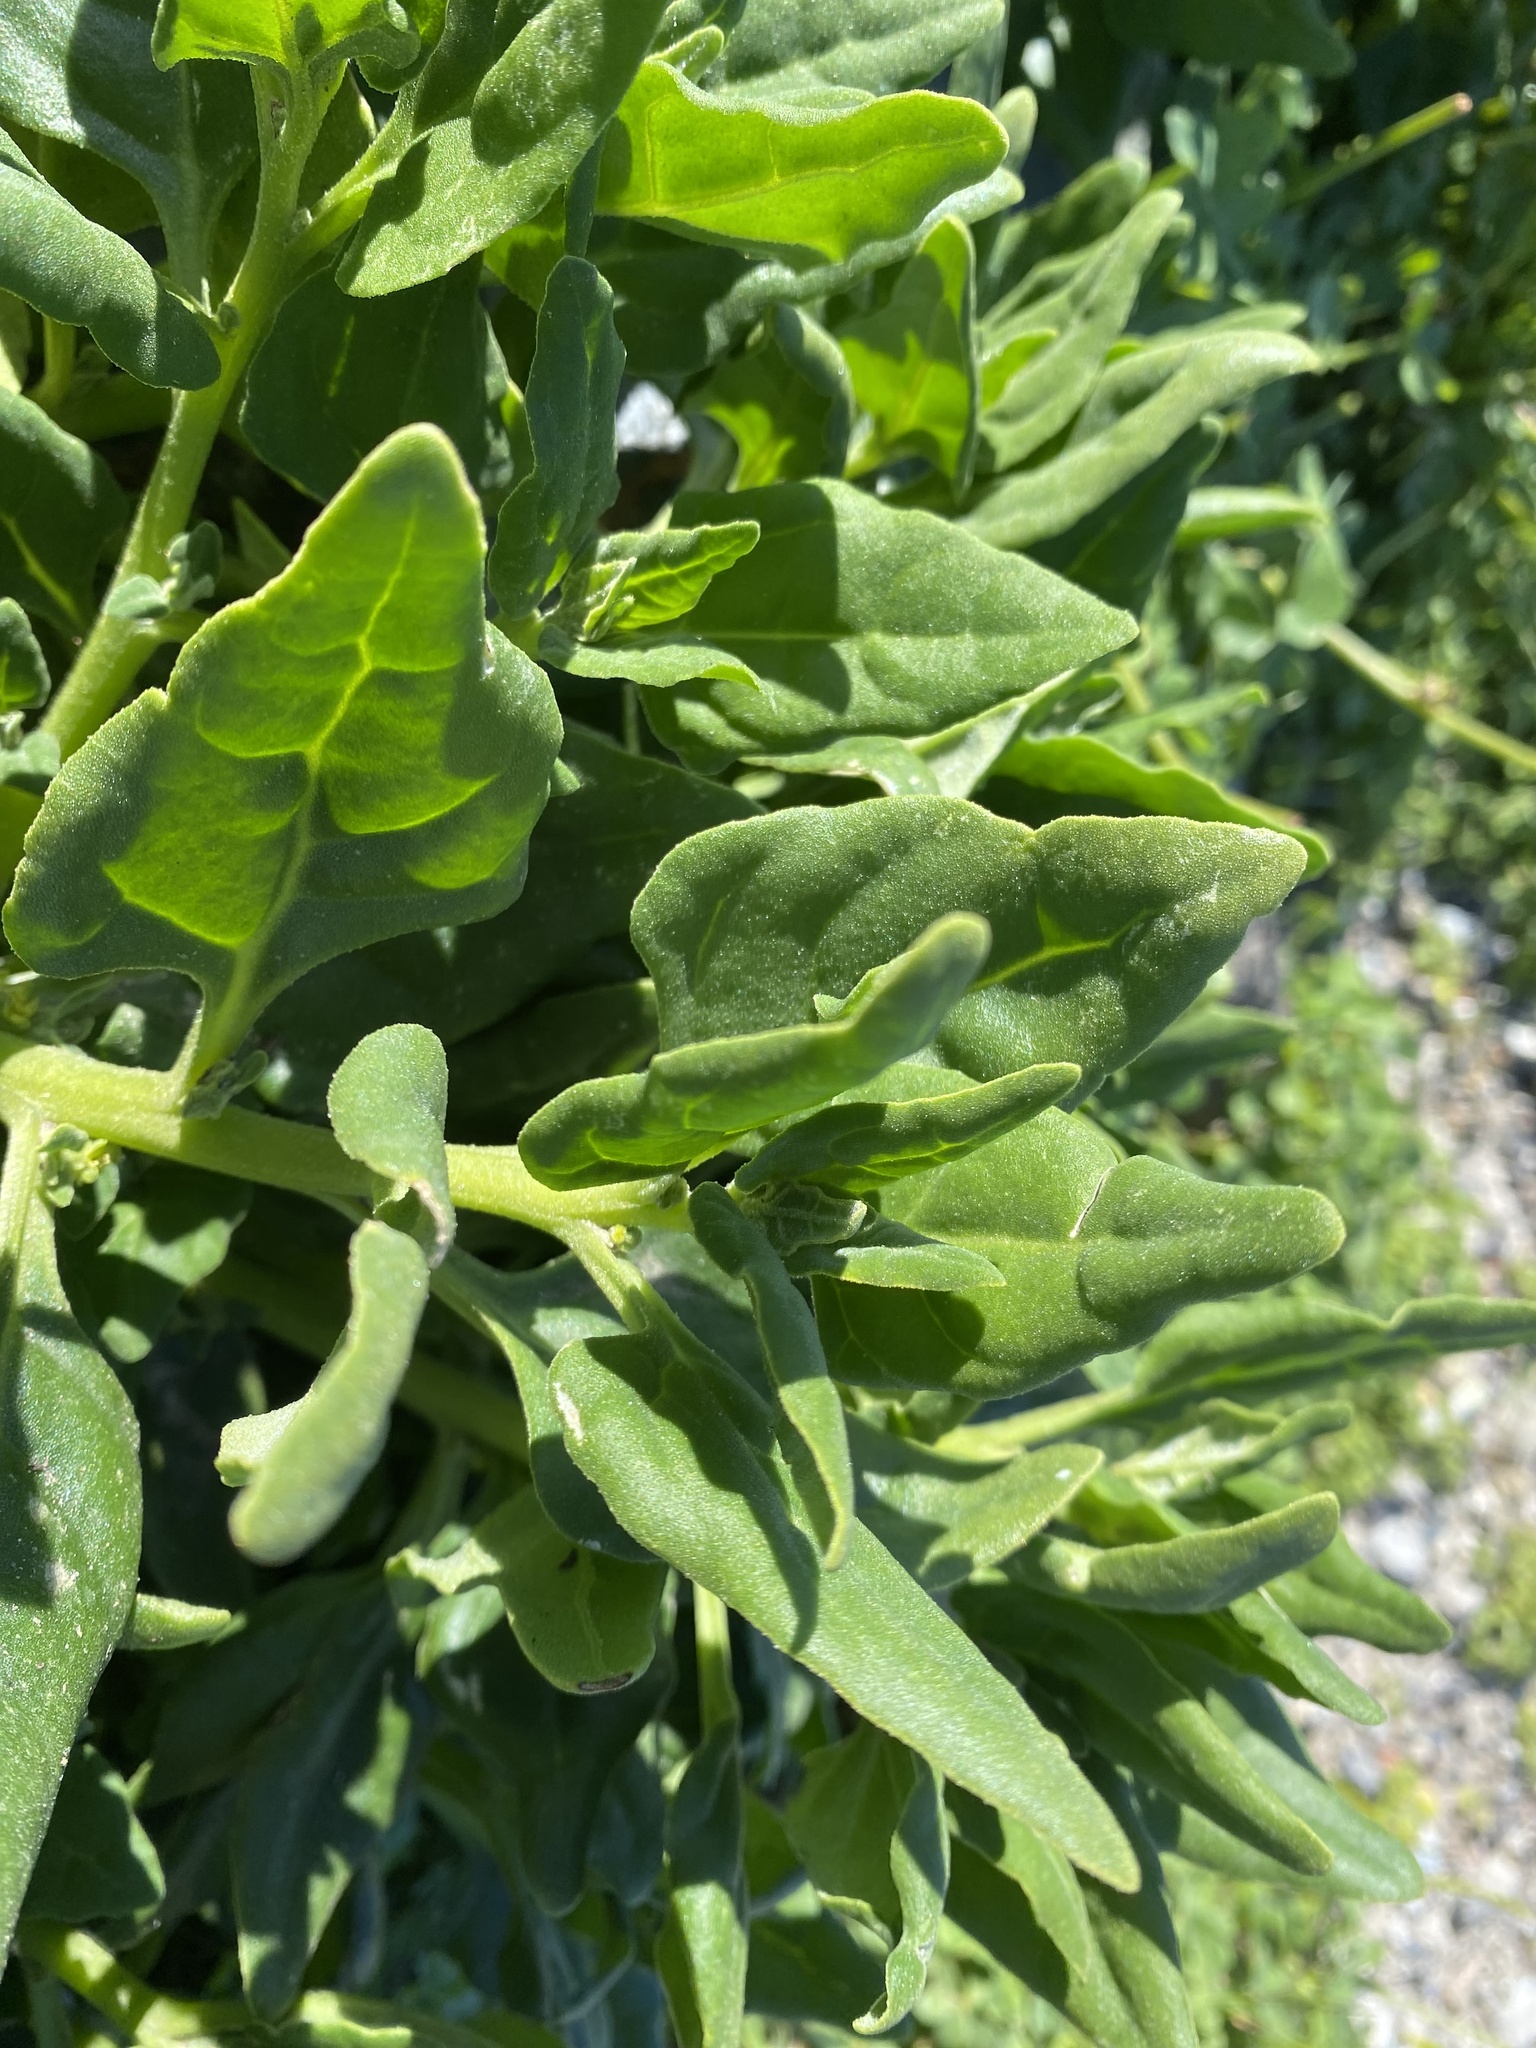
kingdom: Plantae
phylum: Tracheophyta
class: Magnoliopsida
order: Caryophyllales
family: Aizoaceae
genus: Tetragonia
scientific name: Tetragonia tetragonoides
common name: New zealand-spinach
